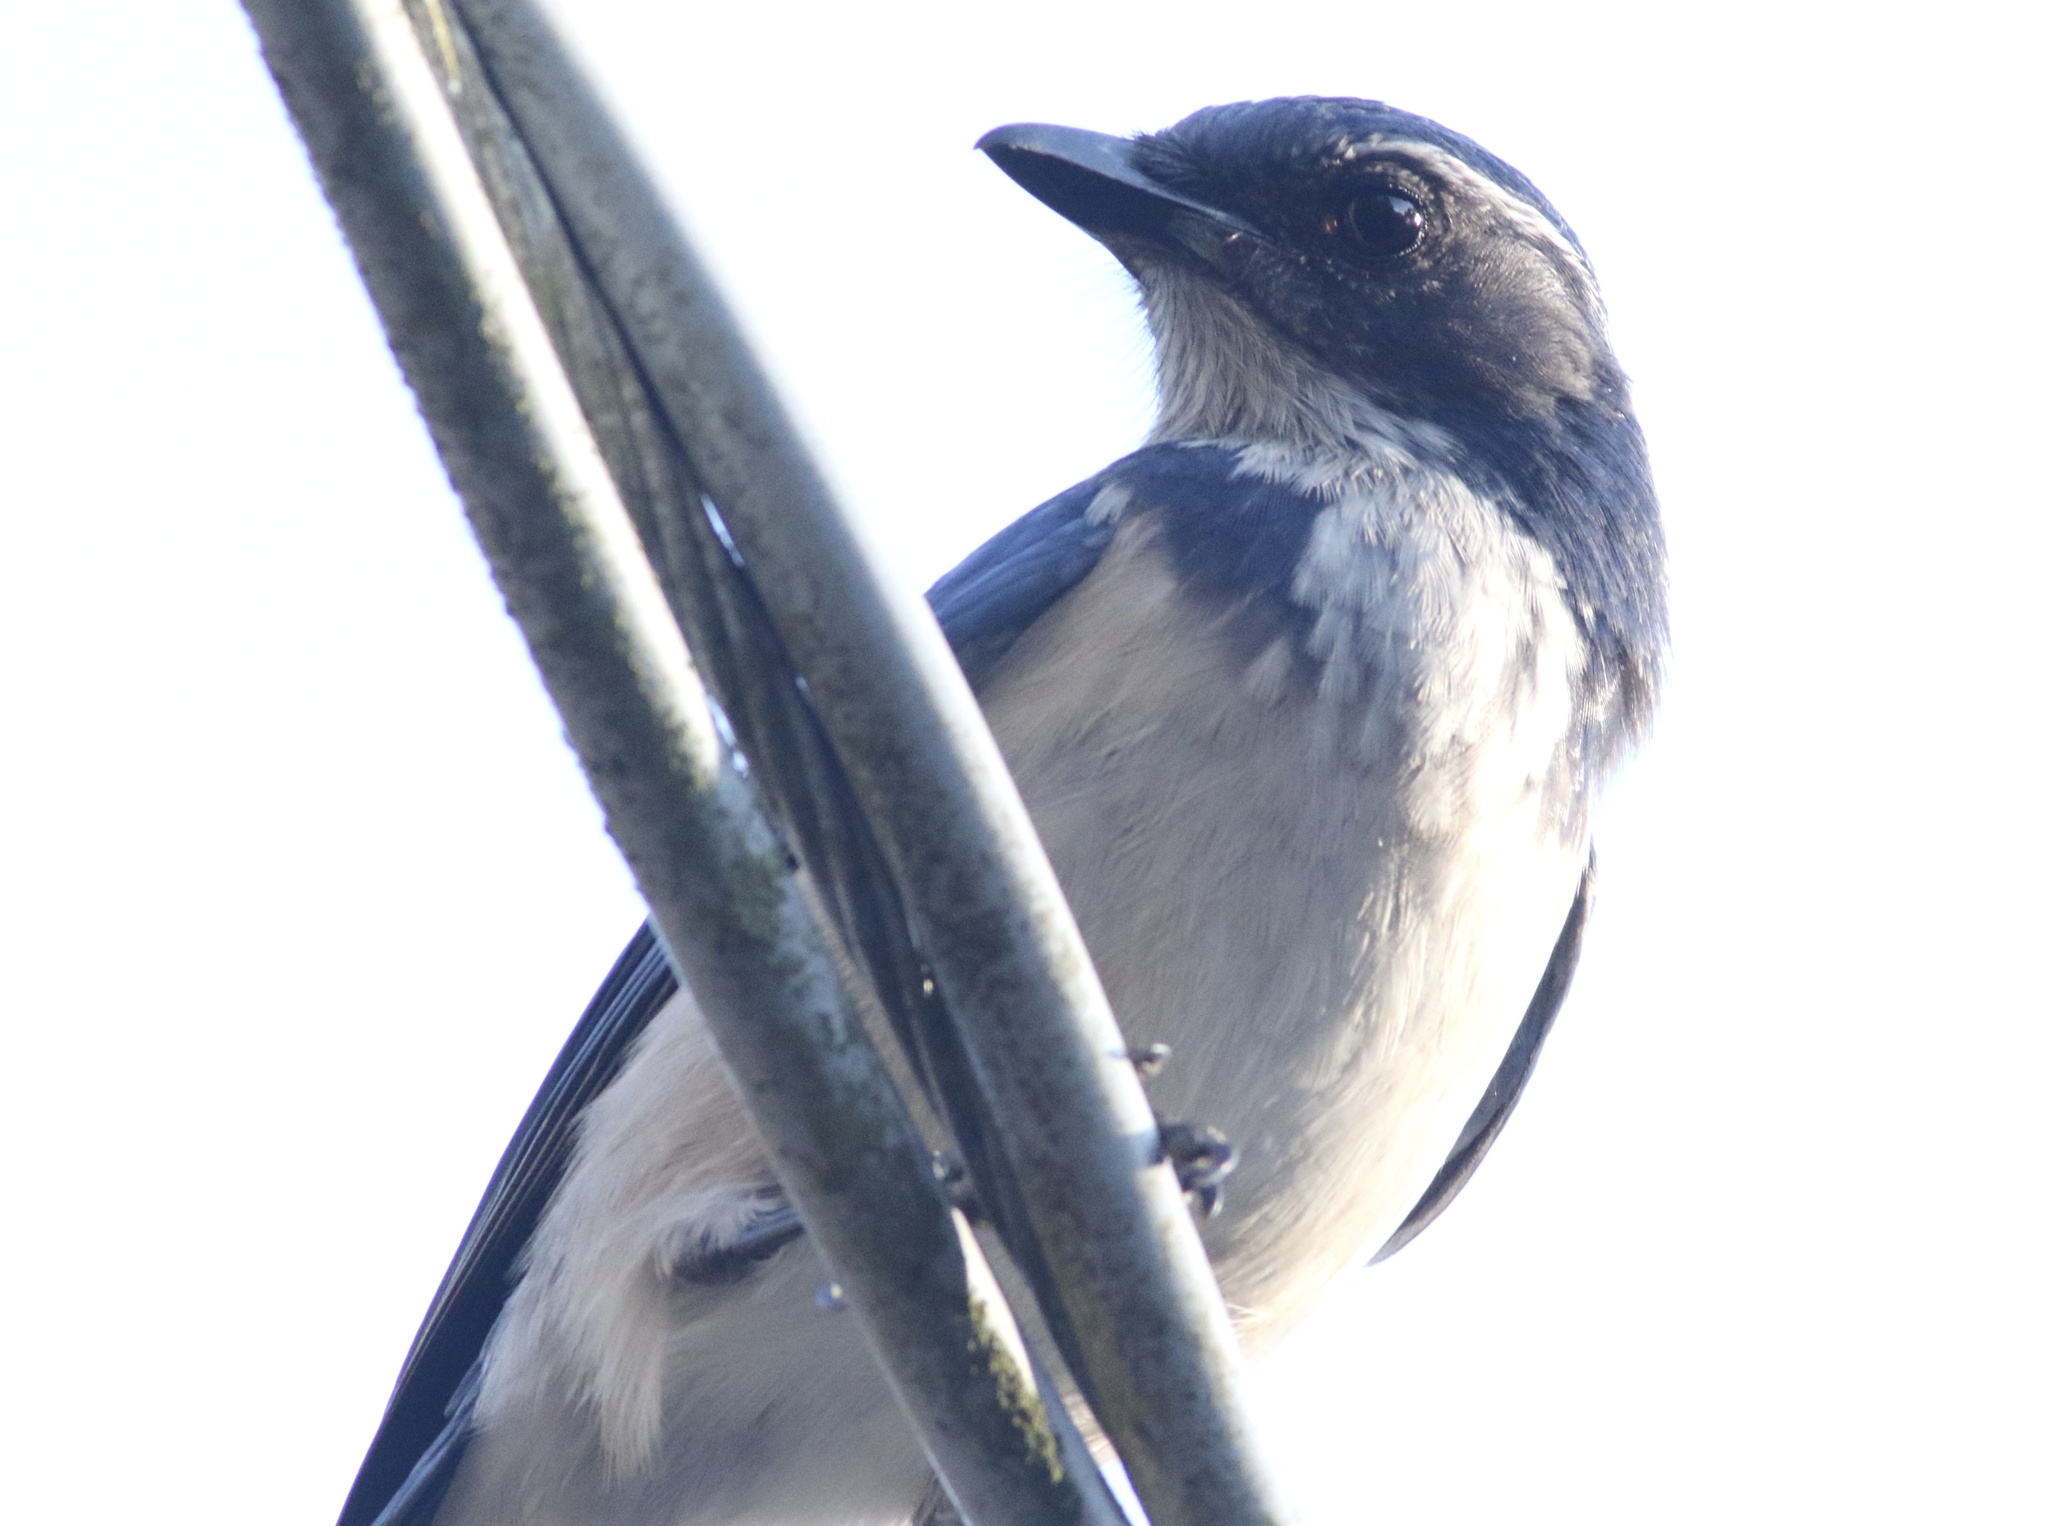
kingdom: Animalia
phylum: Chordata
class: Aves
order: Passeriformes
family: Corvidae
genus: Aphelocoma
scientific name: Aphelocoma californica
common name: California scrub-jay
